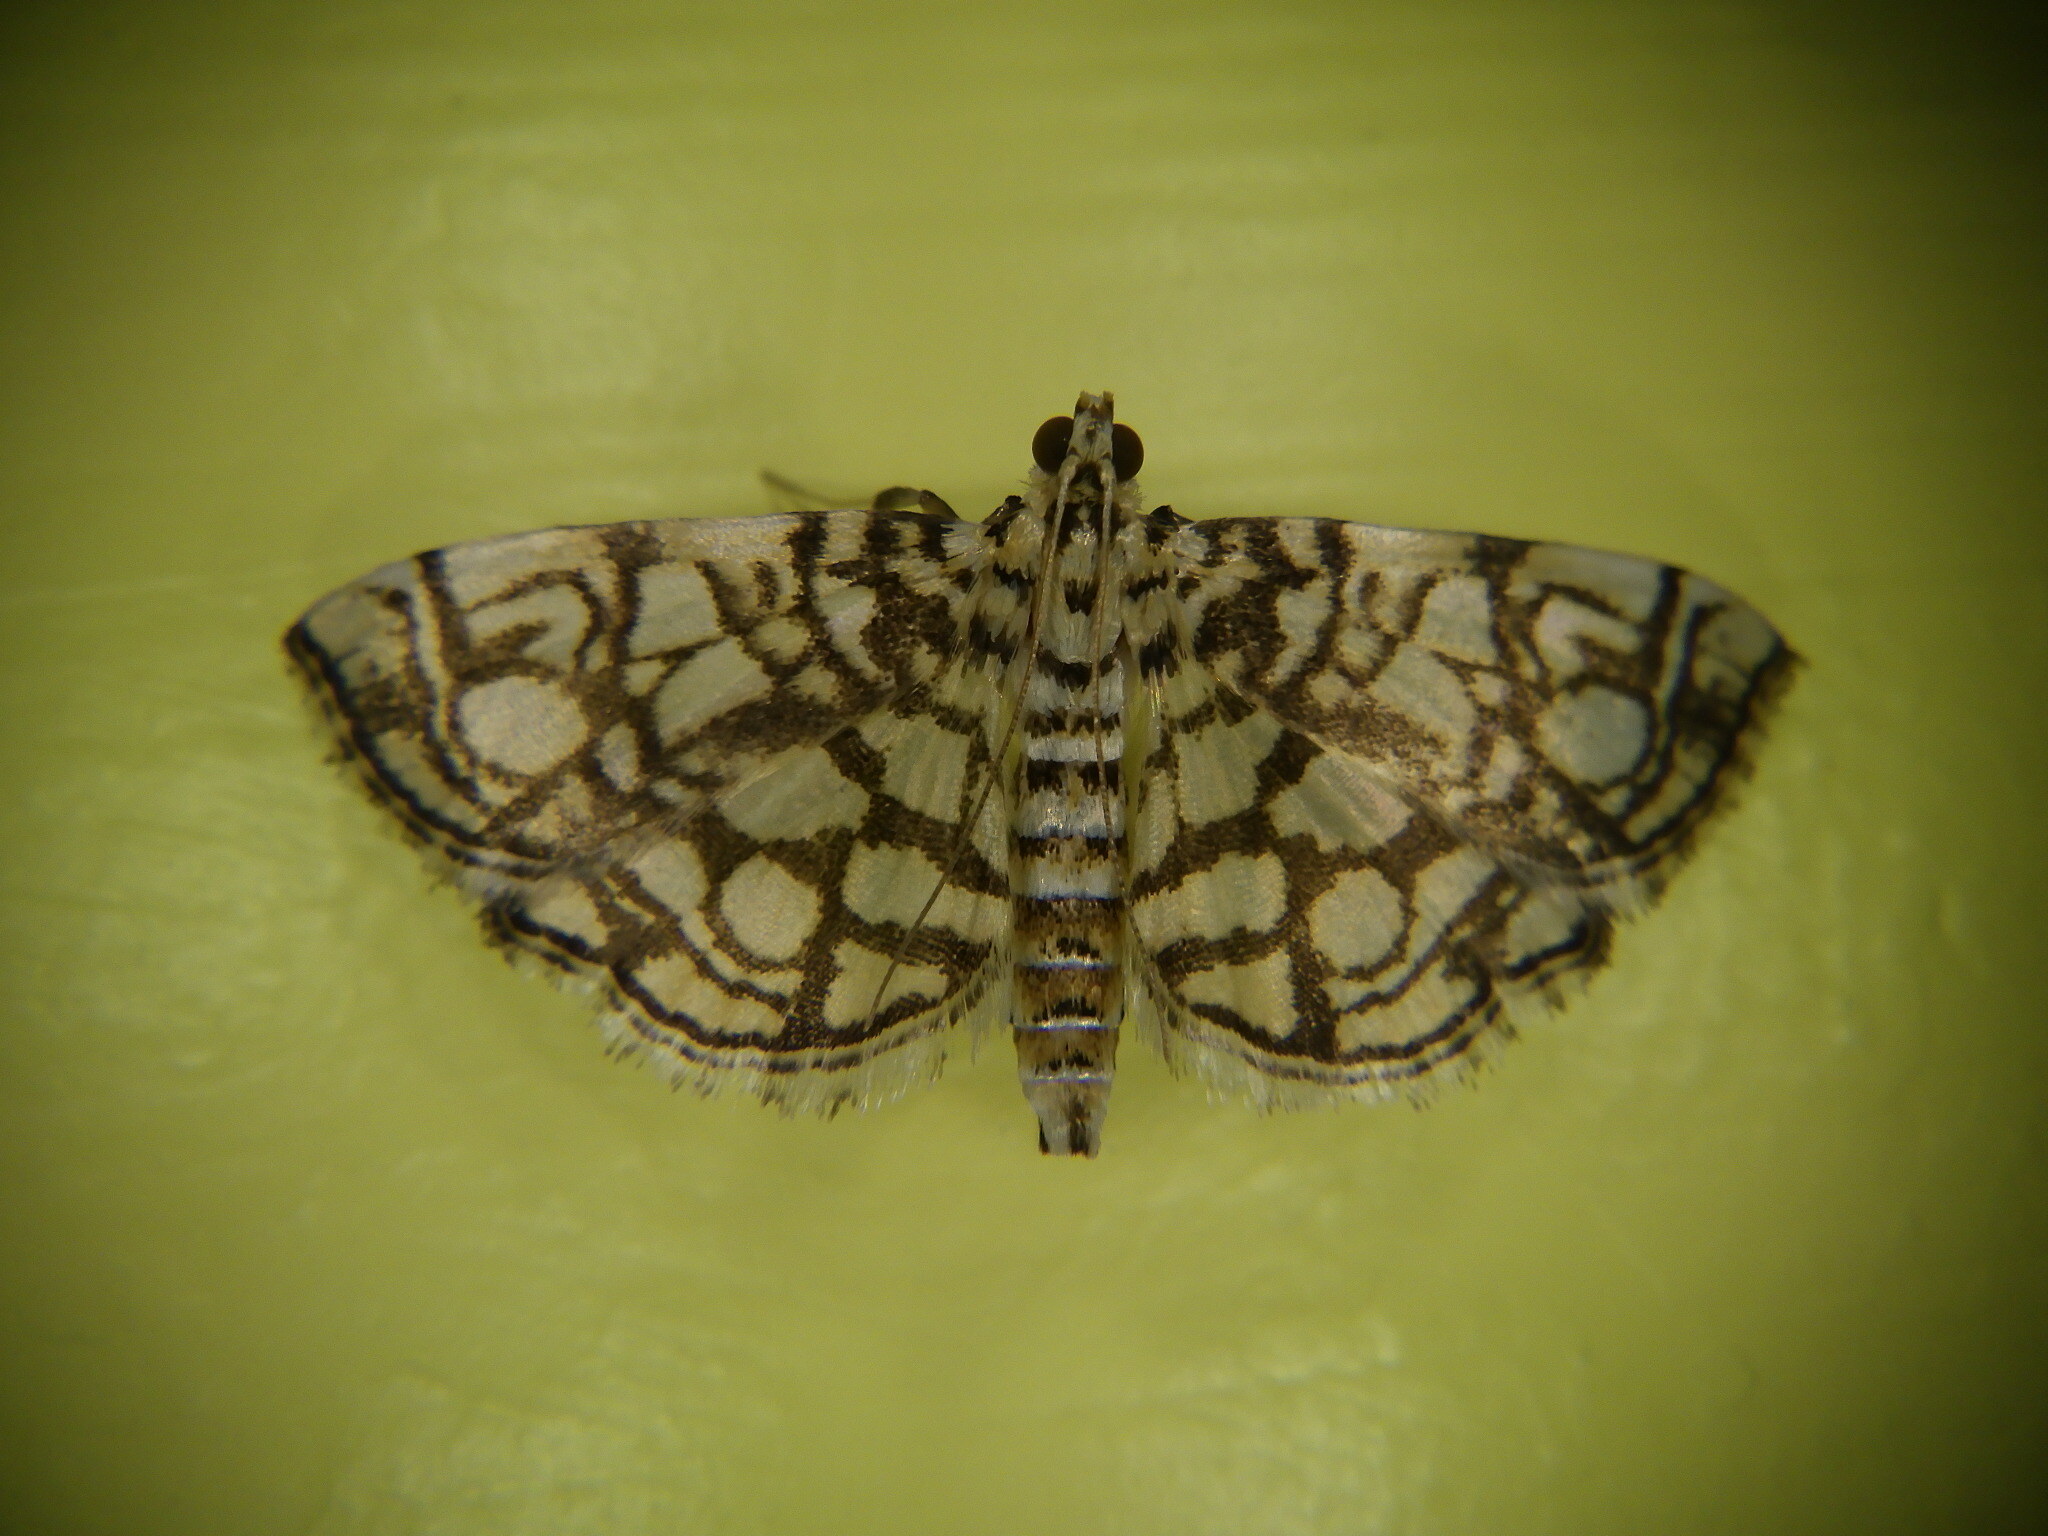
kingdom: Animalia
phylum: Arthropoda
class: Insecta
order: Lepidoptera
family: Crambidae
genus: Lygropia
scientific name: Lygropia rivulalis
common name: Bog lygropia moth
